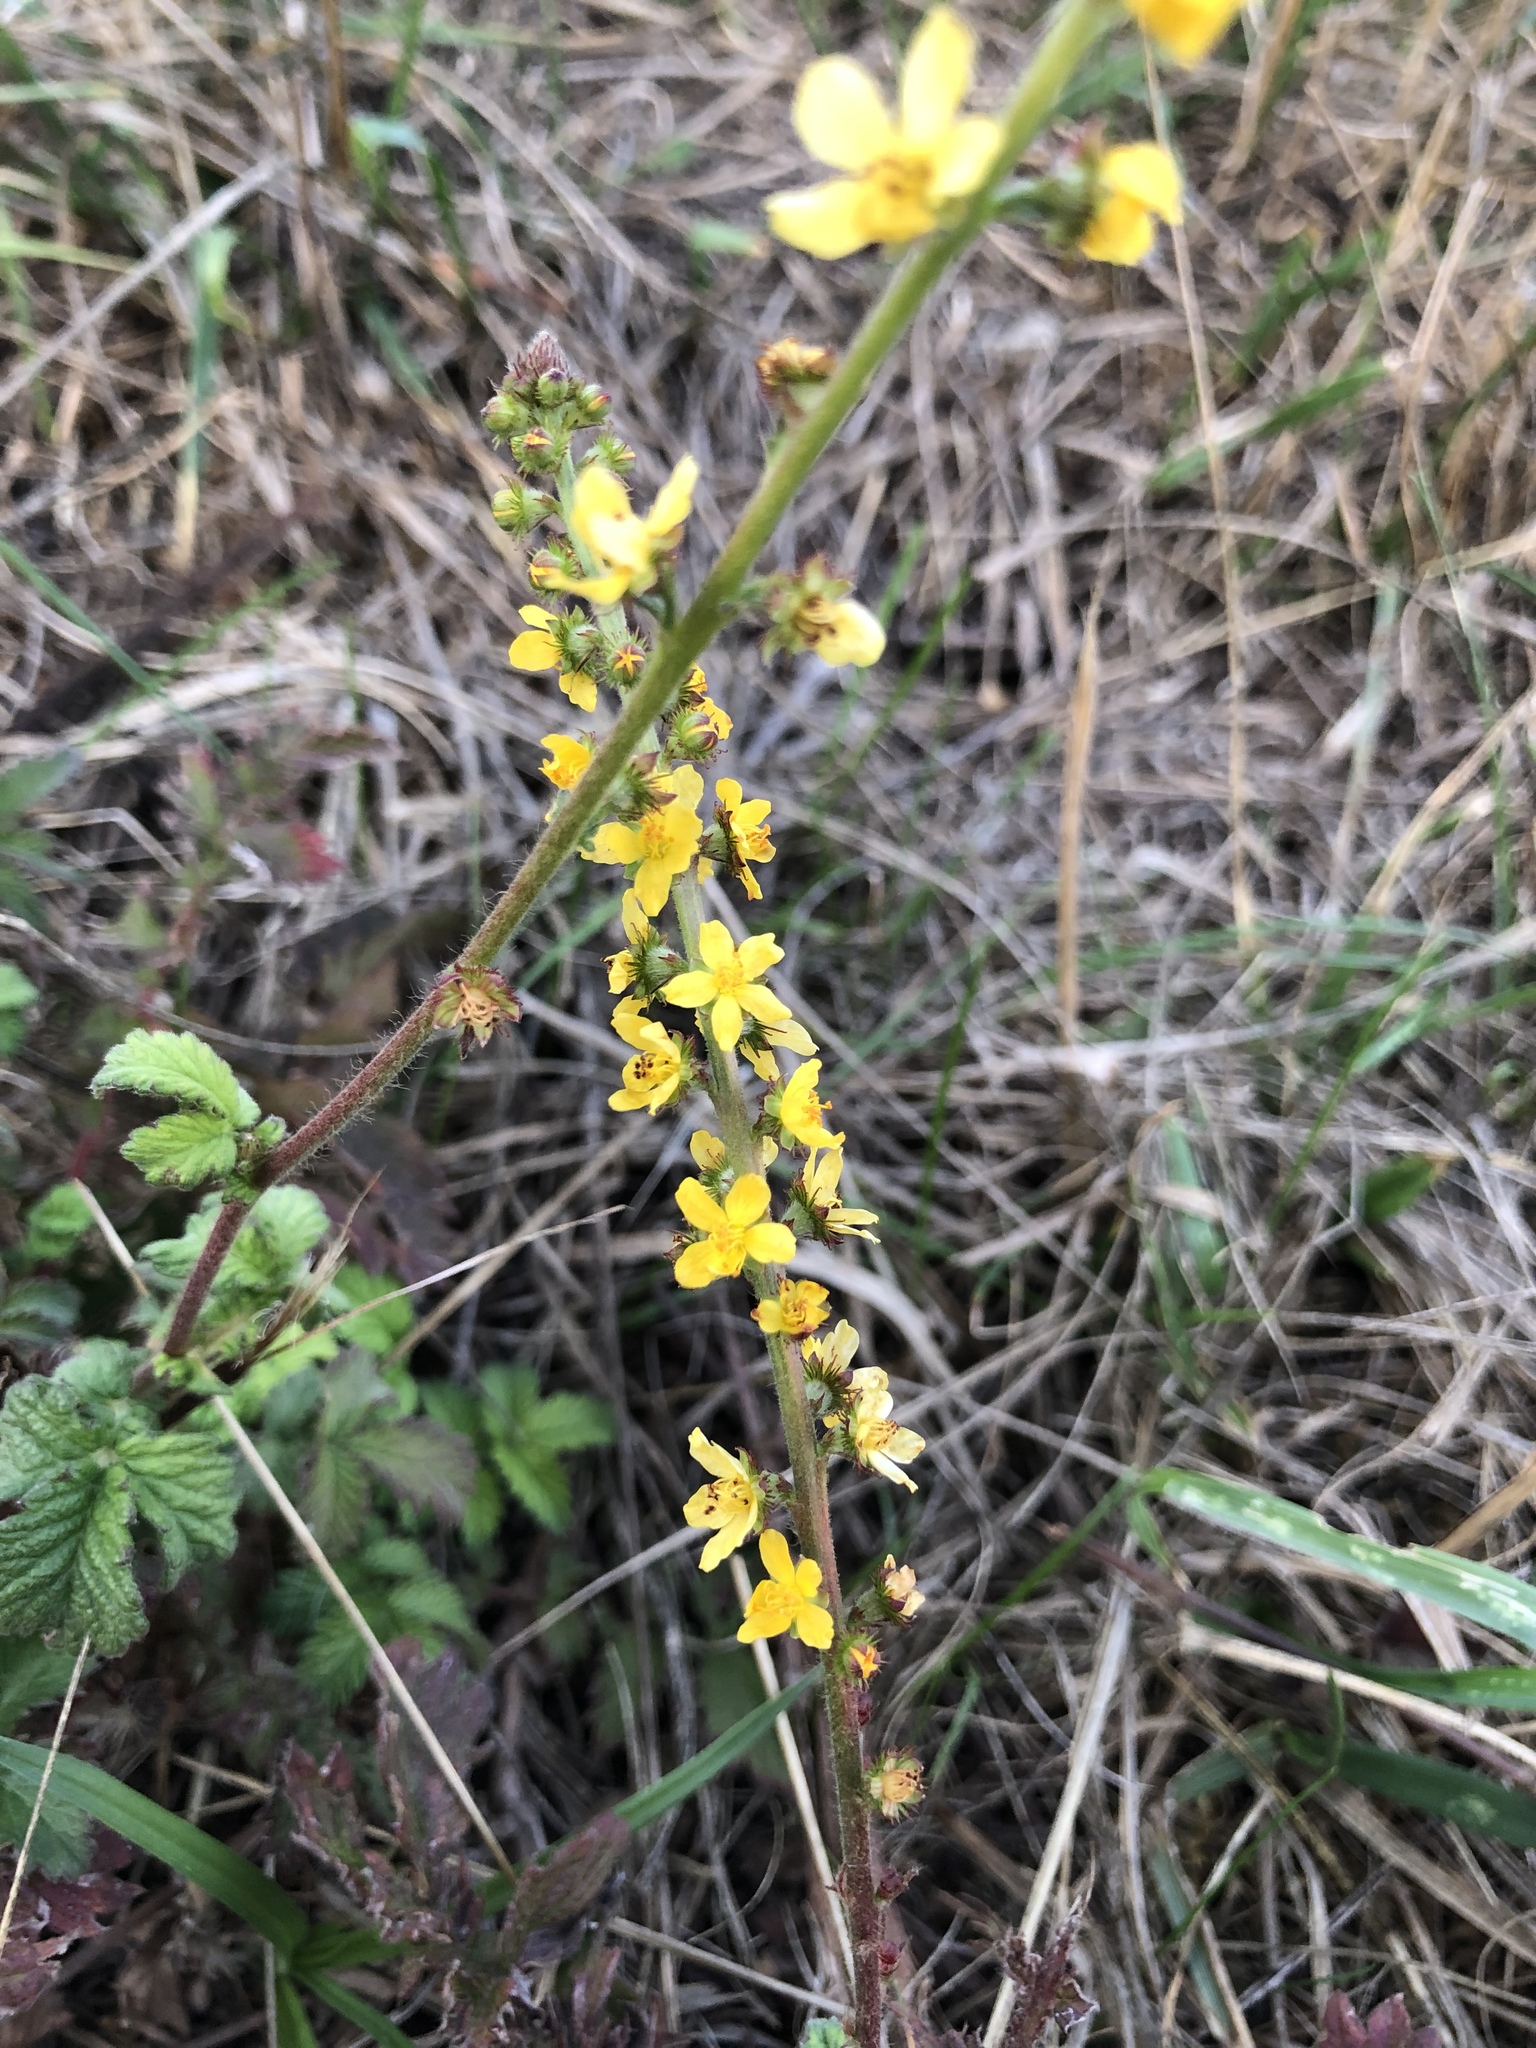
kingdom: Plantae
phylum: Tracheophyta
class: Magnoliopsida
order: Rosales
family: Rosaceae
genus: Agrimonia
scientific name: Agrimonia eupatoria
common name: Agrimony
